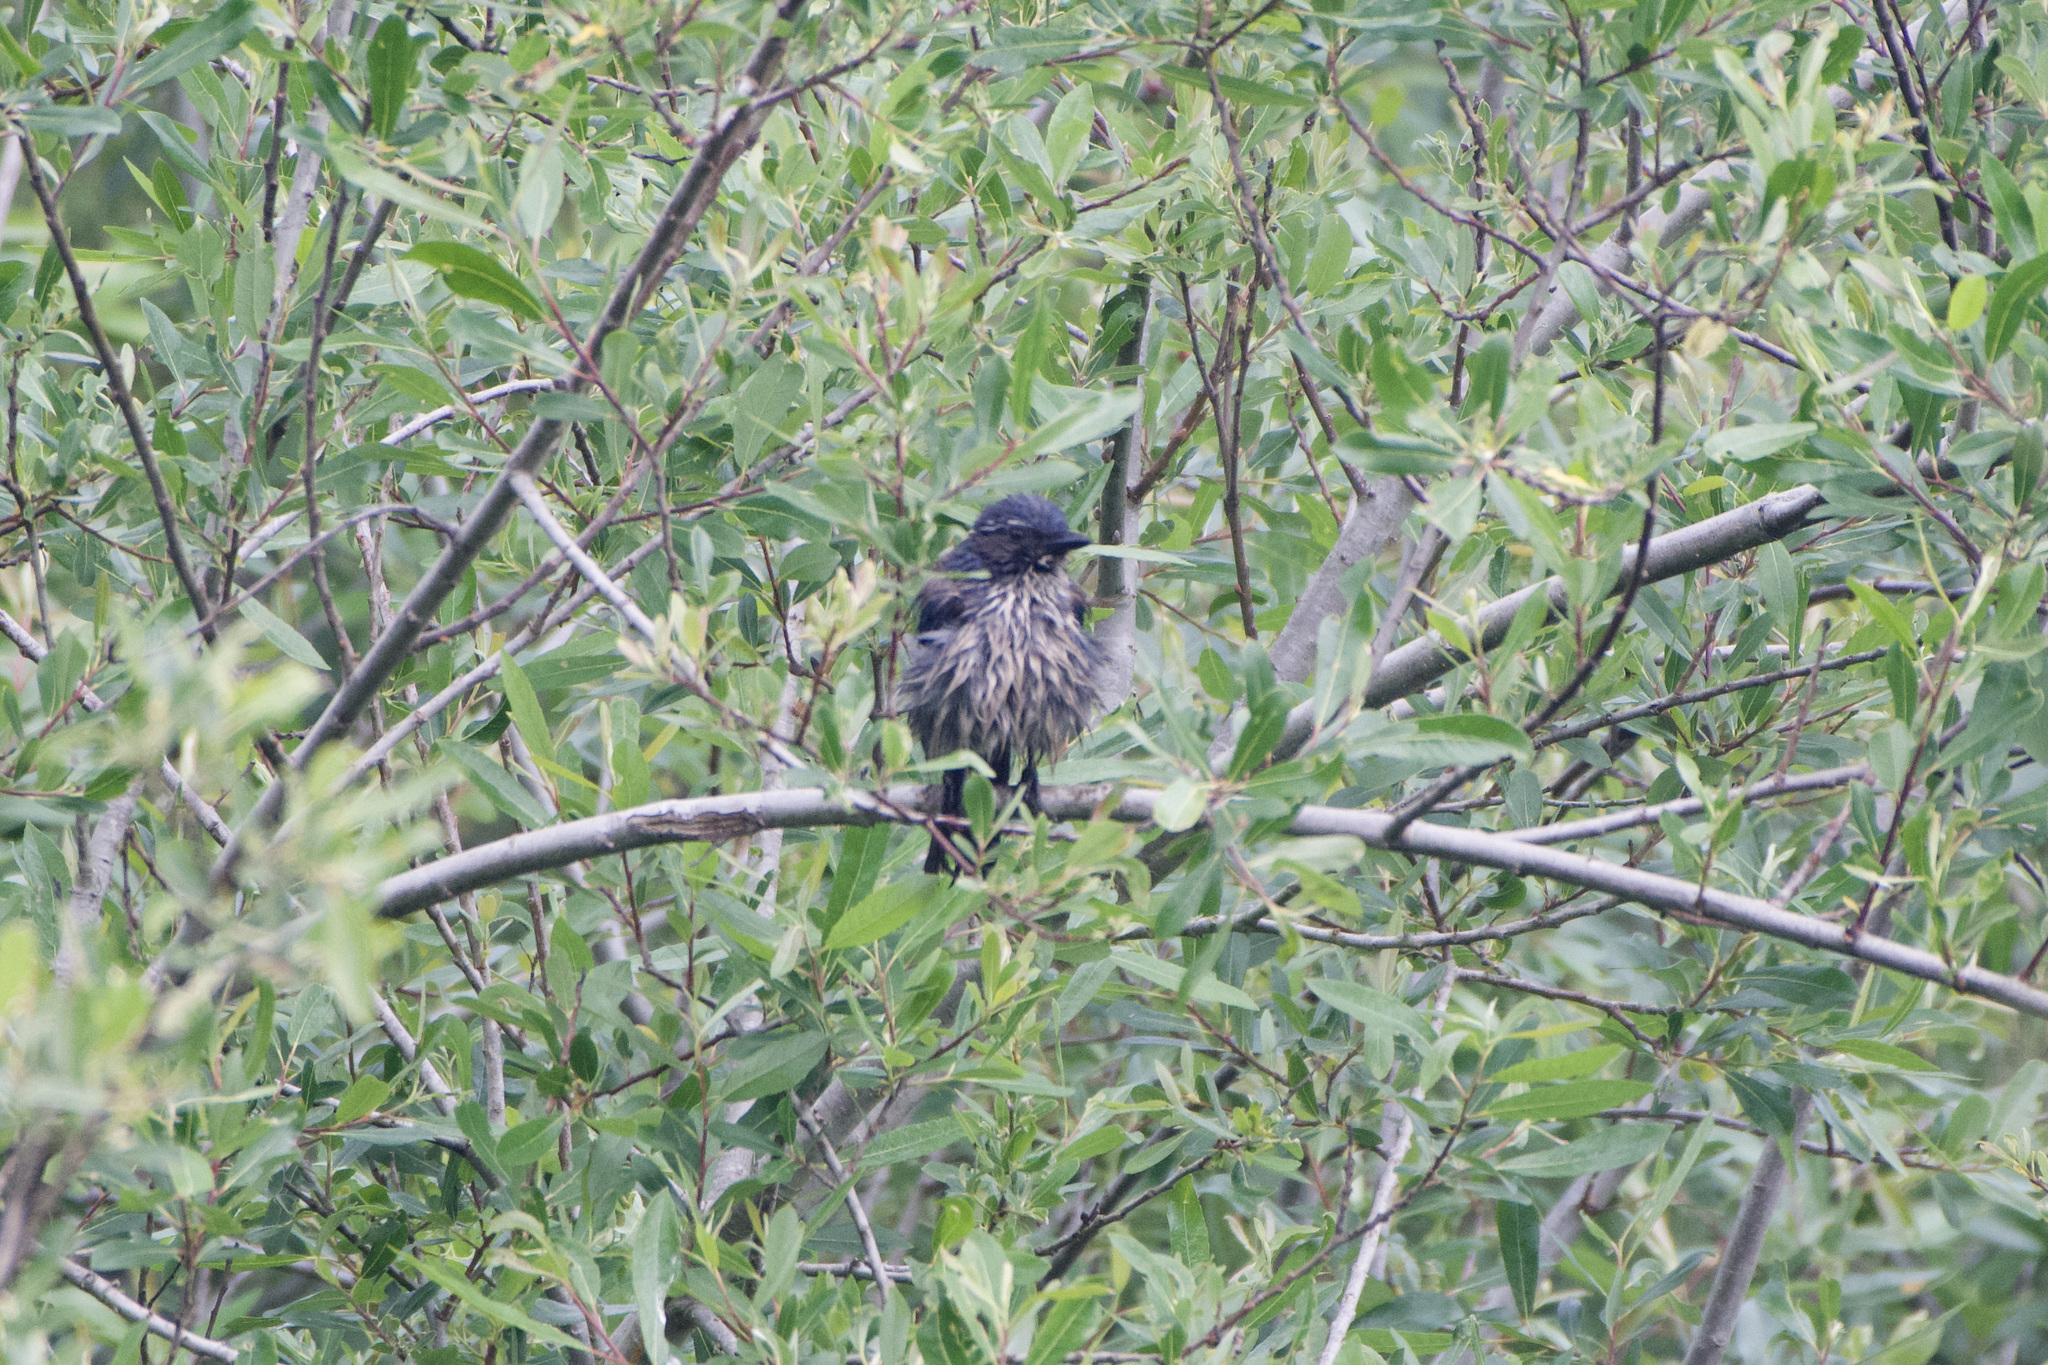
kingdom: Animalia
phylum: Chordata
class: Aves
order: Passeriformes
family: Corvidae
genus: Aphelocoma
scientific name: Aphelocoma californica
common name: California scrub-jay
